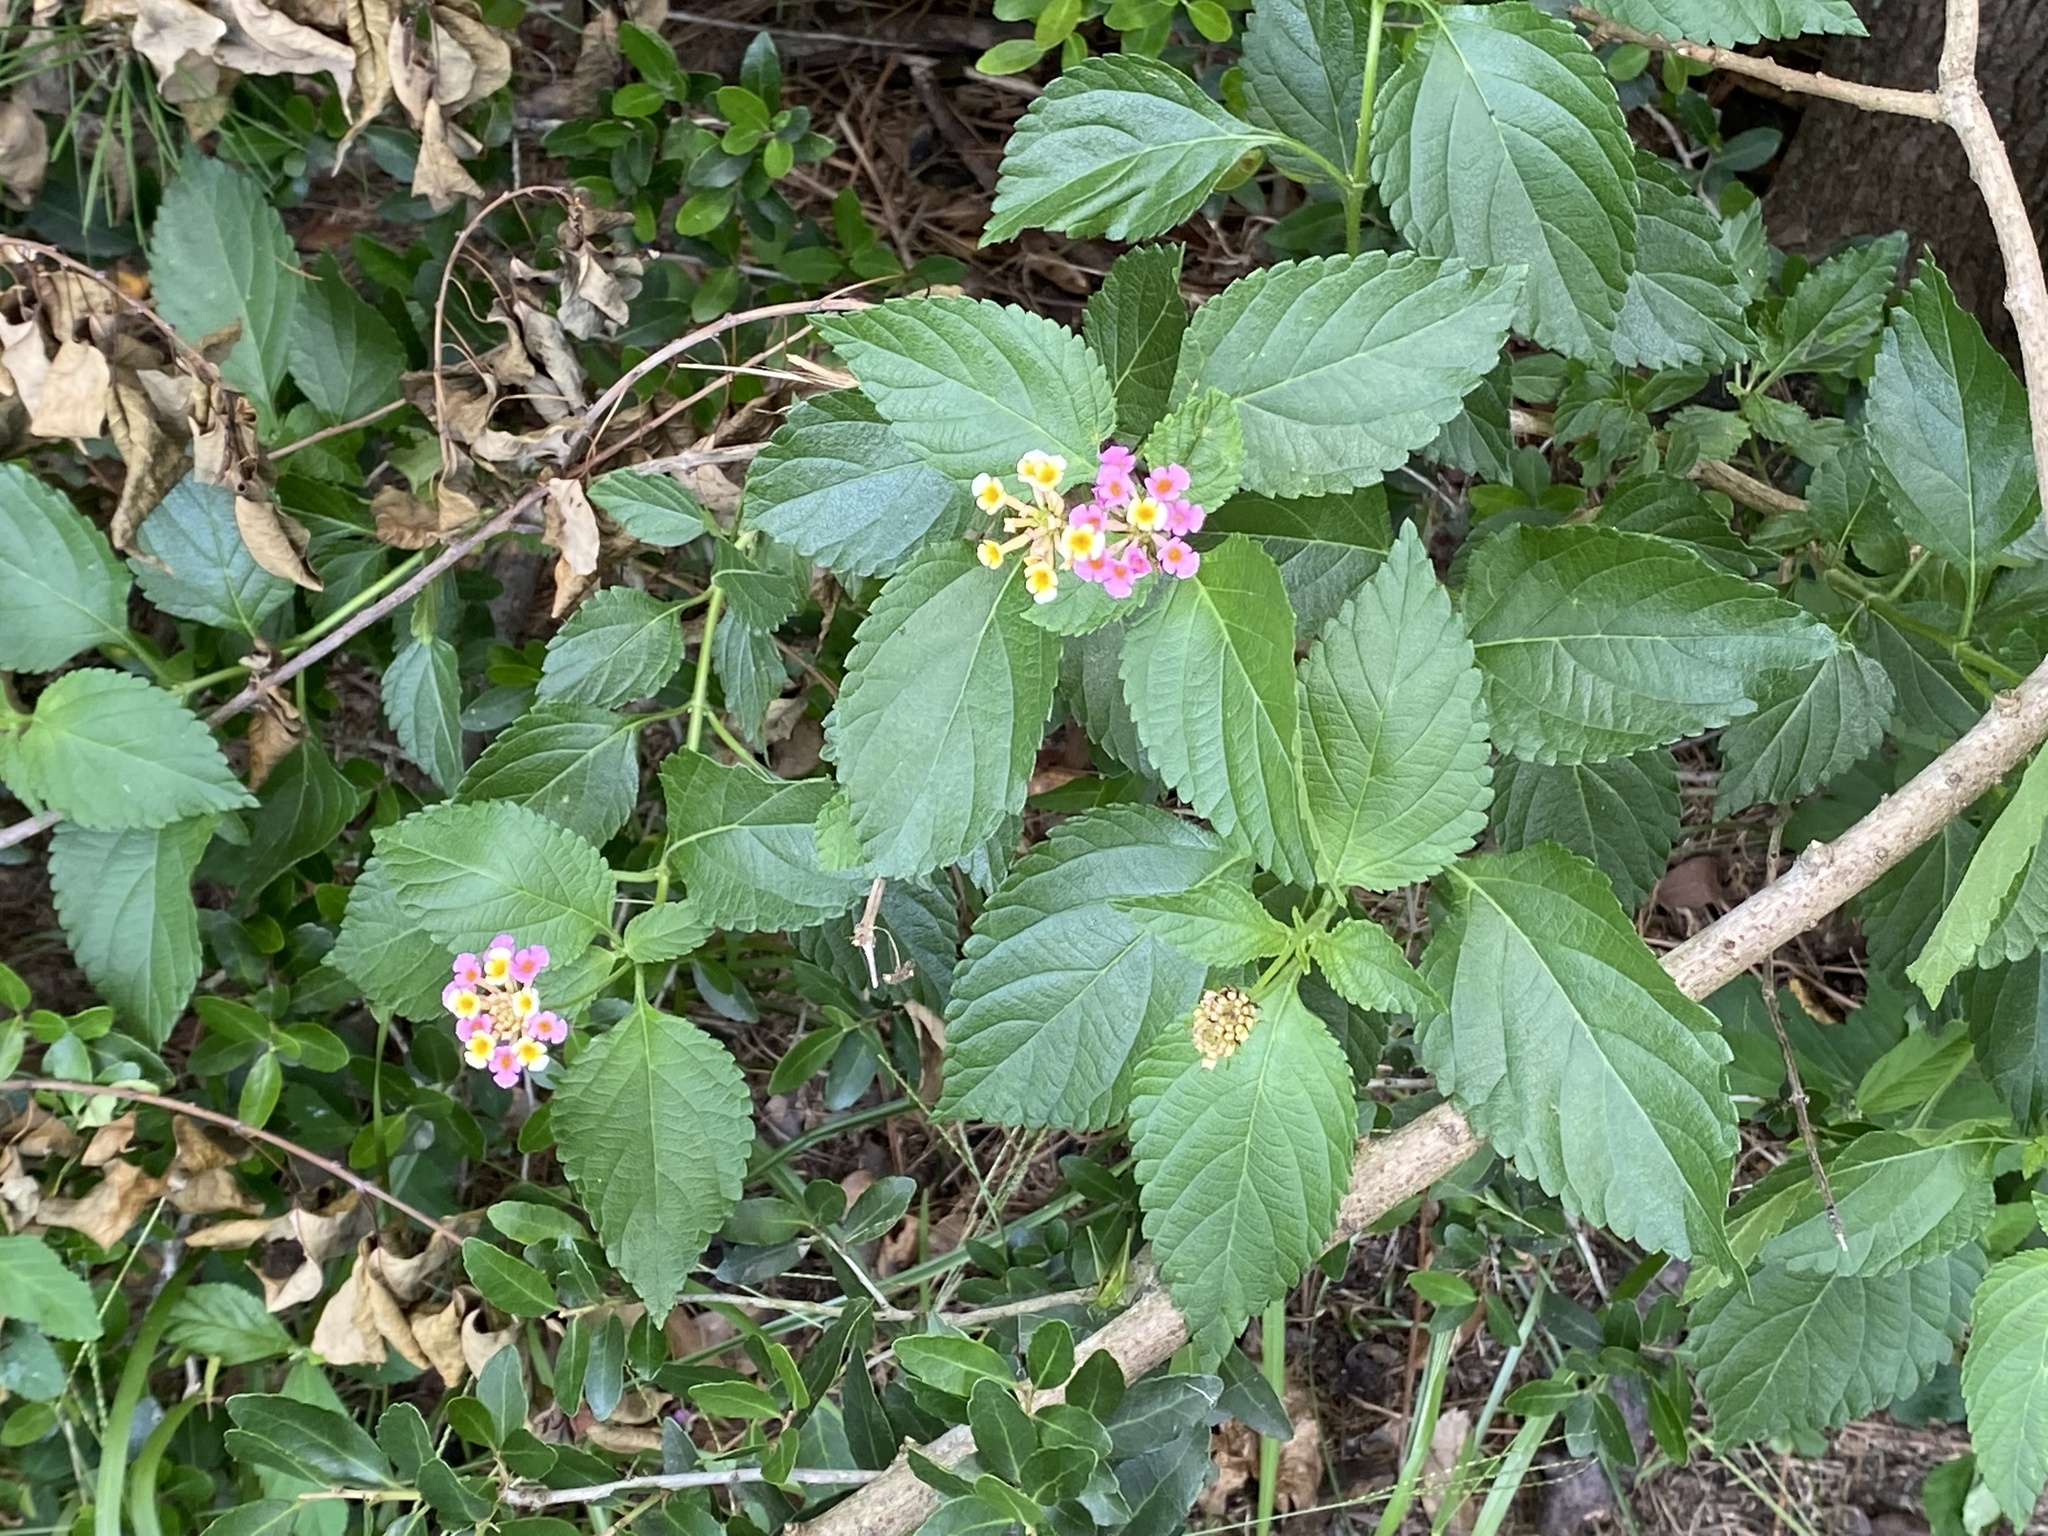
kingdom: Plantae
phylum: Tracheophyta
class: Magnoliopsida
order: Lamiales
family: Verbenaceae
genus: Lantana
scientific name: Lantana strigocamara
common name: Lantana
